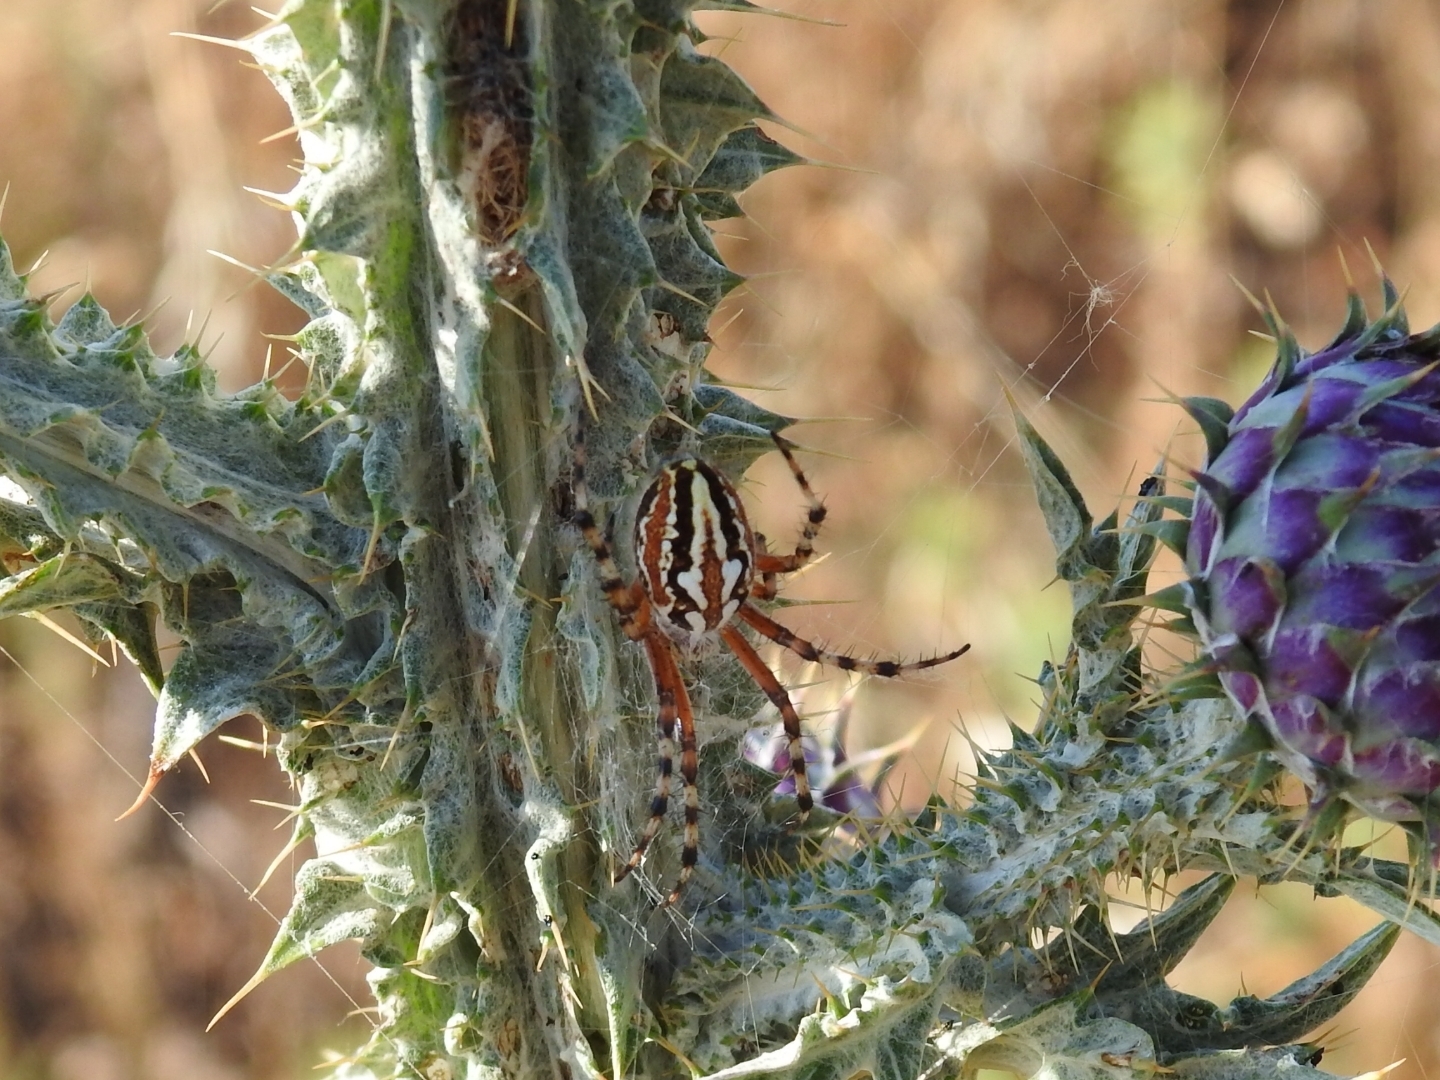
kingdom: Animalia
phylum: Arthropoda
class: Arachnida
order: Araneae
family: Araneidae
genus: Aculepeira
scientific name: Aculepeira armida
